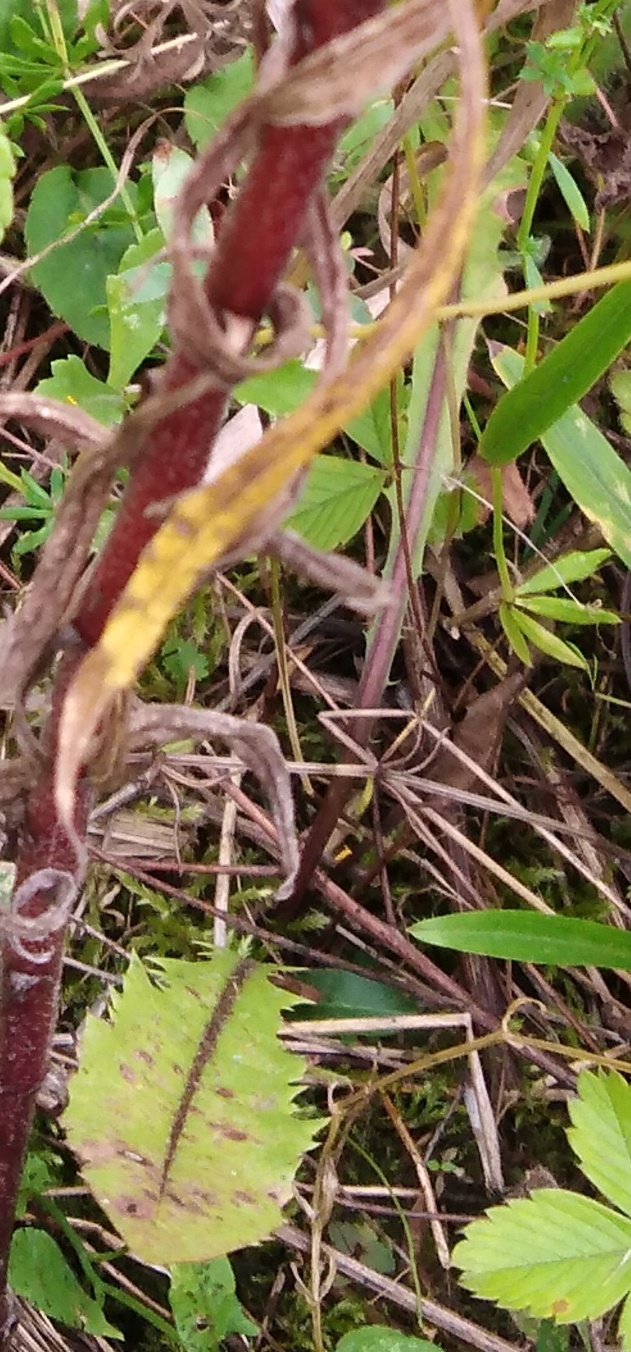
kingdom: Plantae
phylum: Tracheophyta
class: Magnoliopsida
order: Asterales
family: Asteraceae
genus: Taraxacum
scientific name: Taraxacum officinale
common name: Common dandelion
